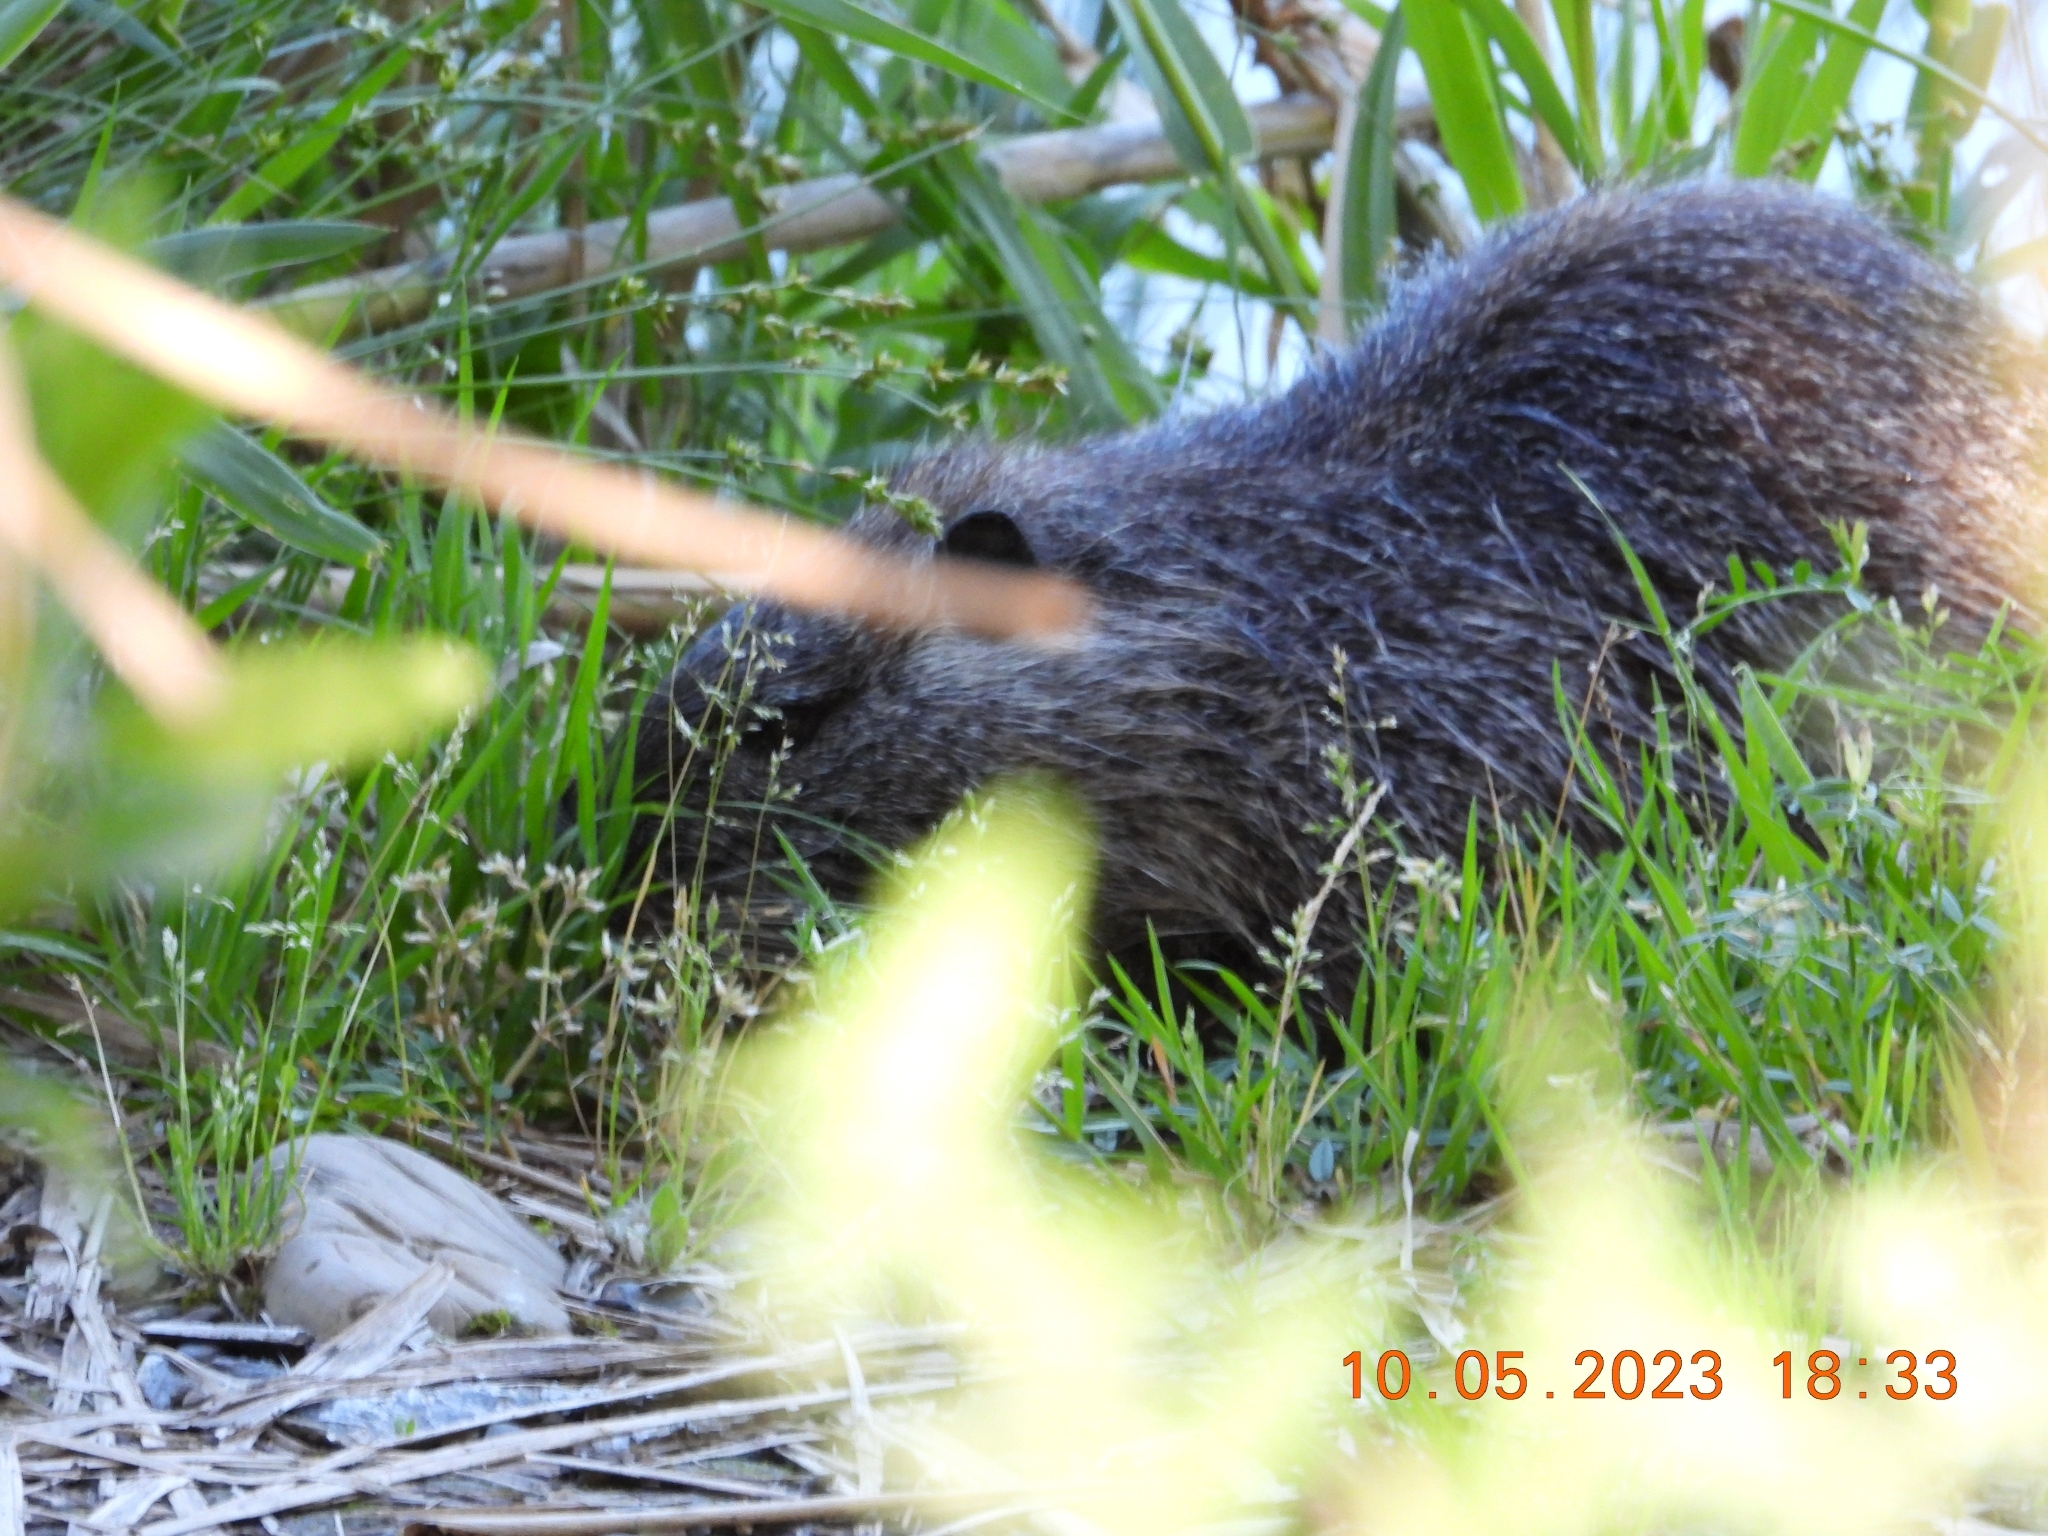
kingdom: Animalia
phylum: Chordata
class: Mammalia
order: Rodentia
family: Myocastoridae
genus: Myocastor
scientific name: Myocastor coypus
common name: Coypu
